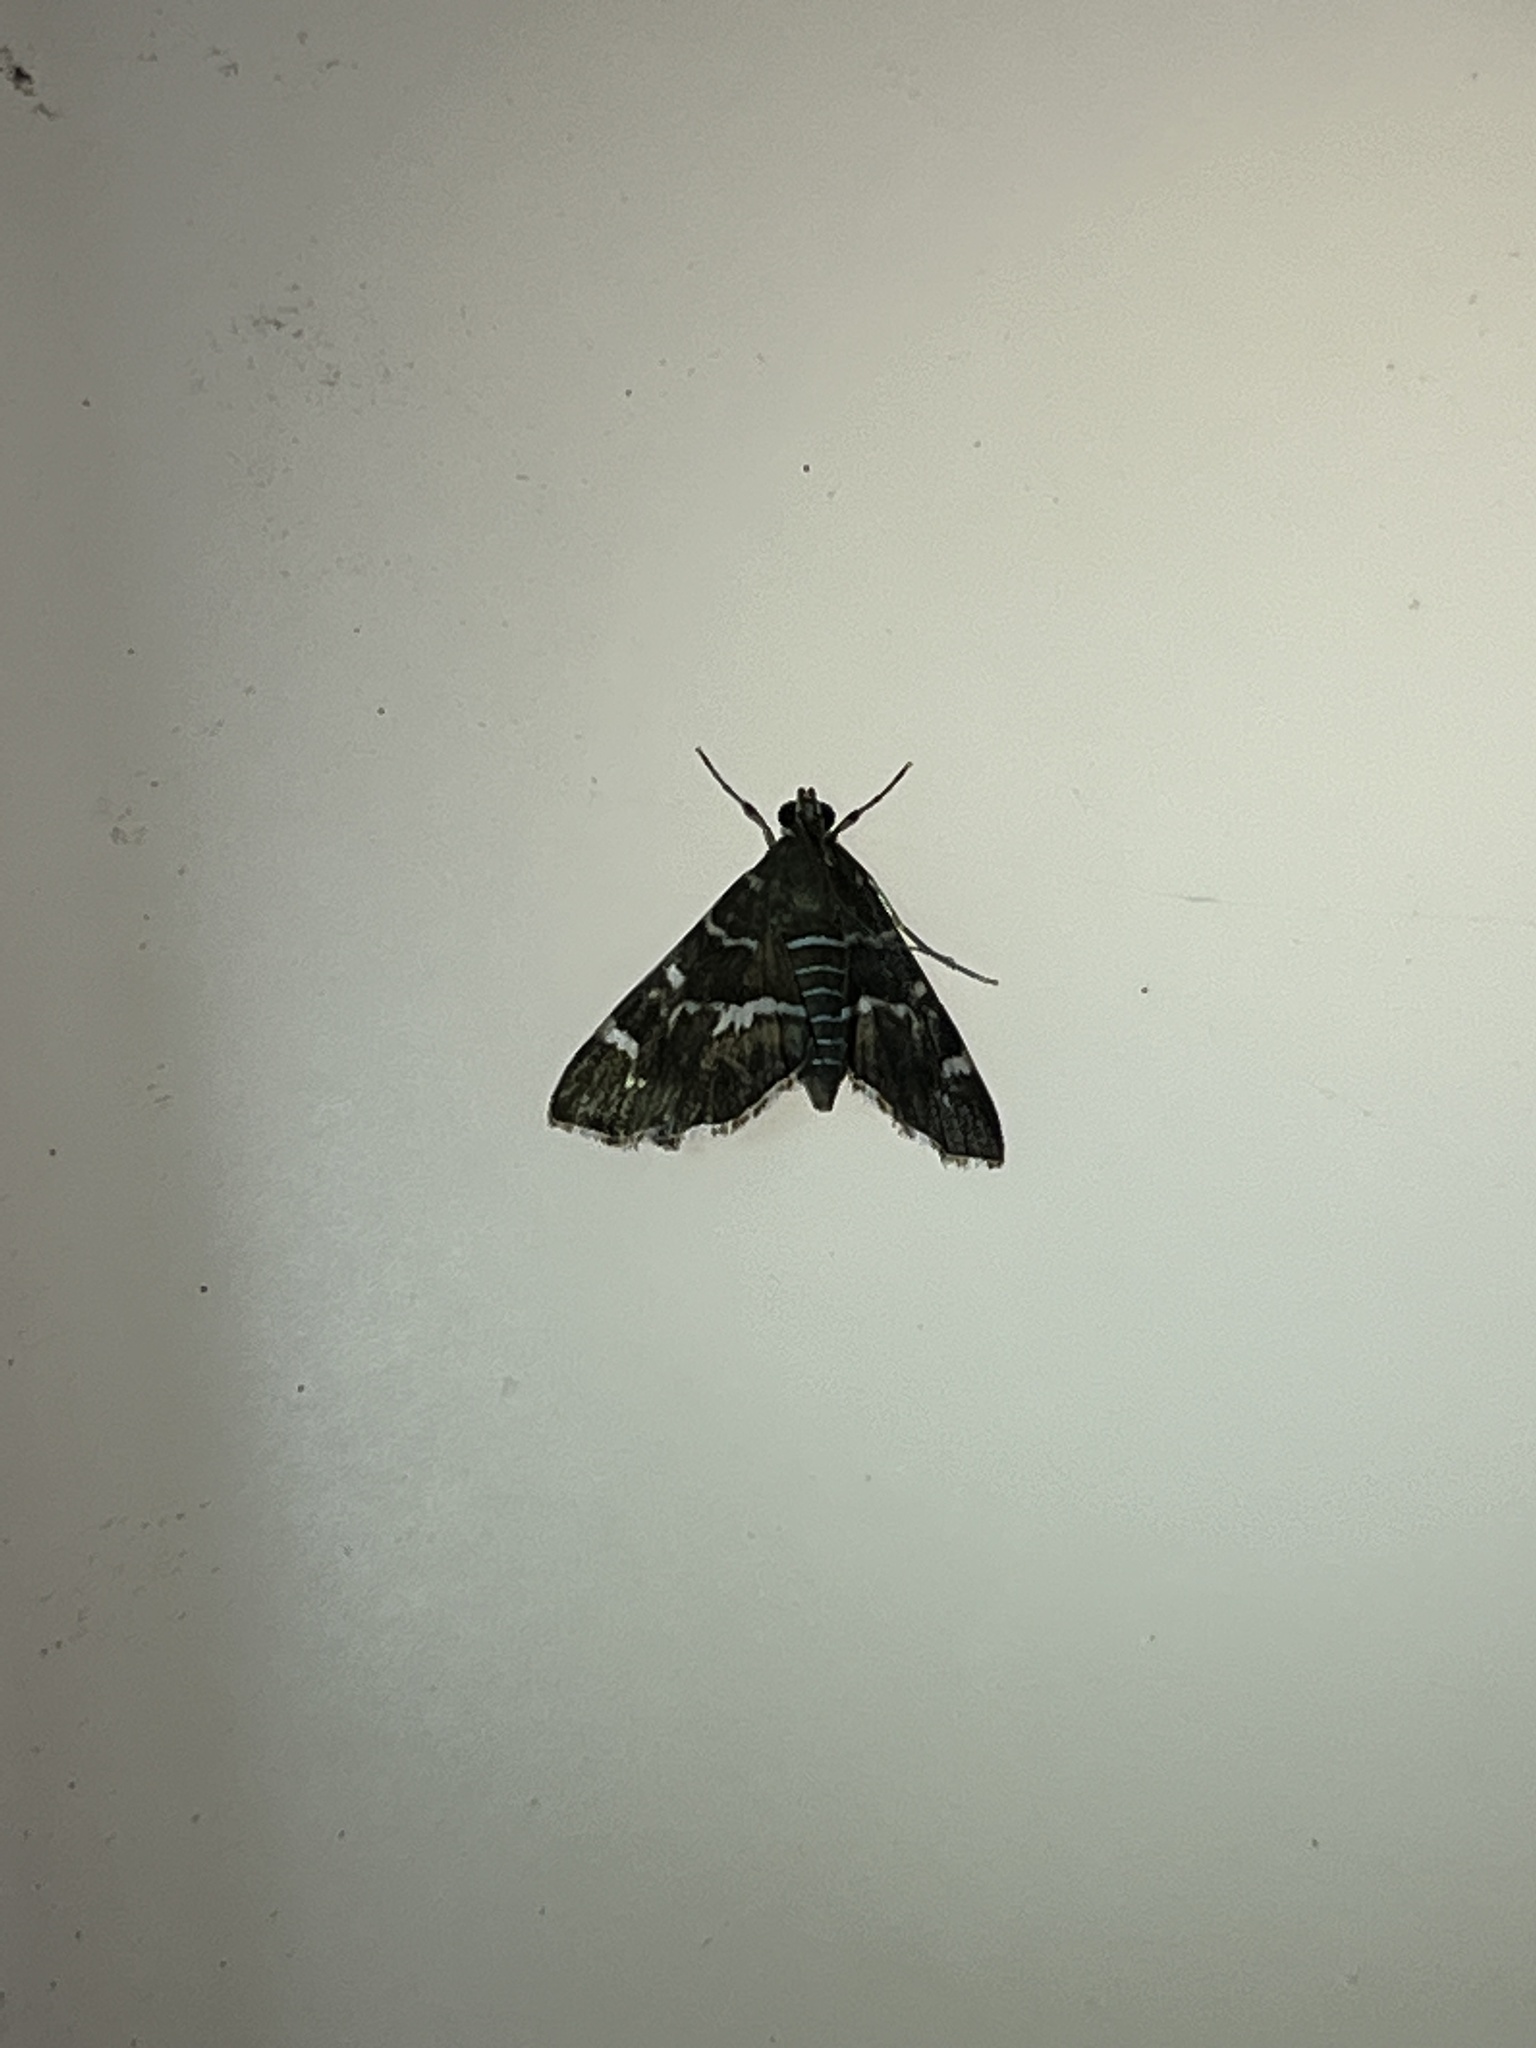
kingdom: Animalia
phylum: Arthropoda
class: Insecta
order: Lepidoptera
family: Crambidae
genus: Hymenia
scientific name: Hymenia perspectalis
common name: Spotted beet webworm
